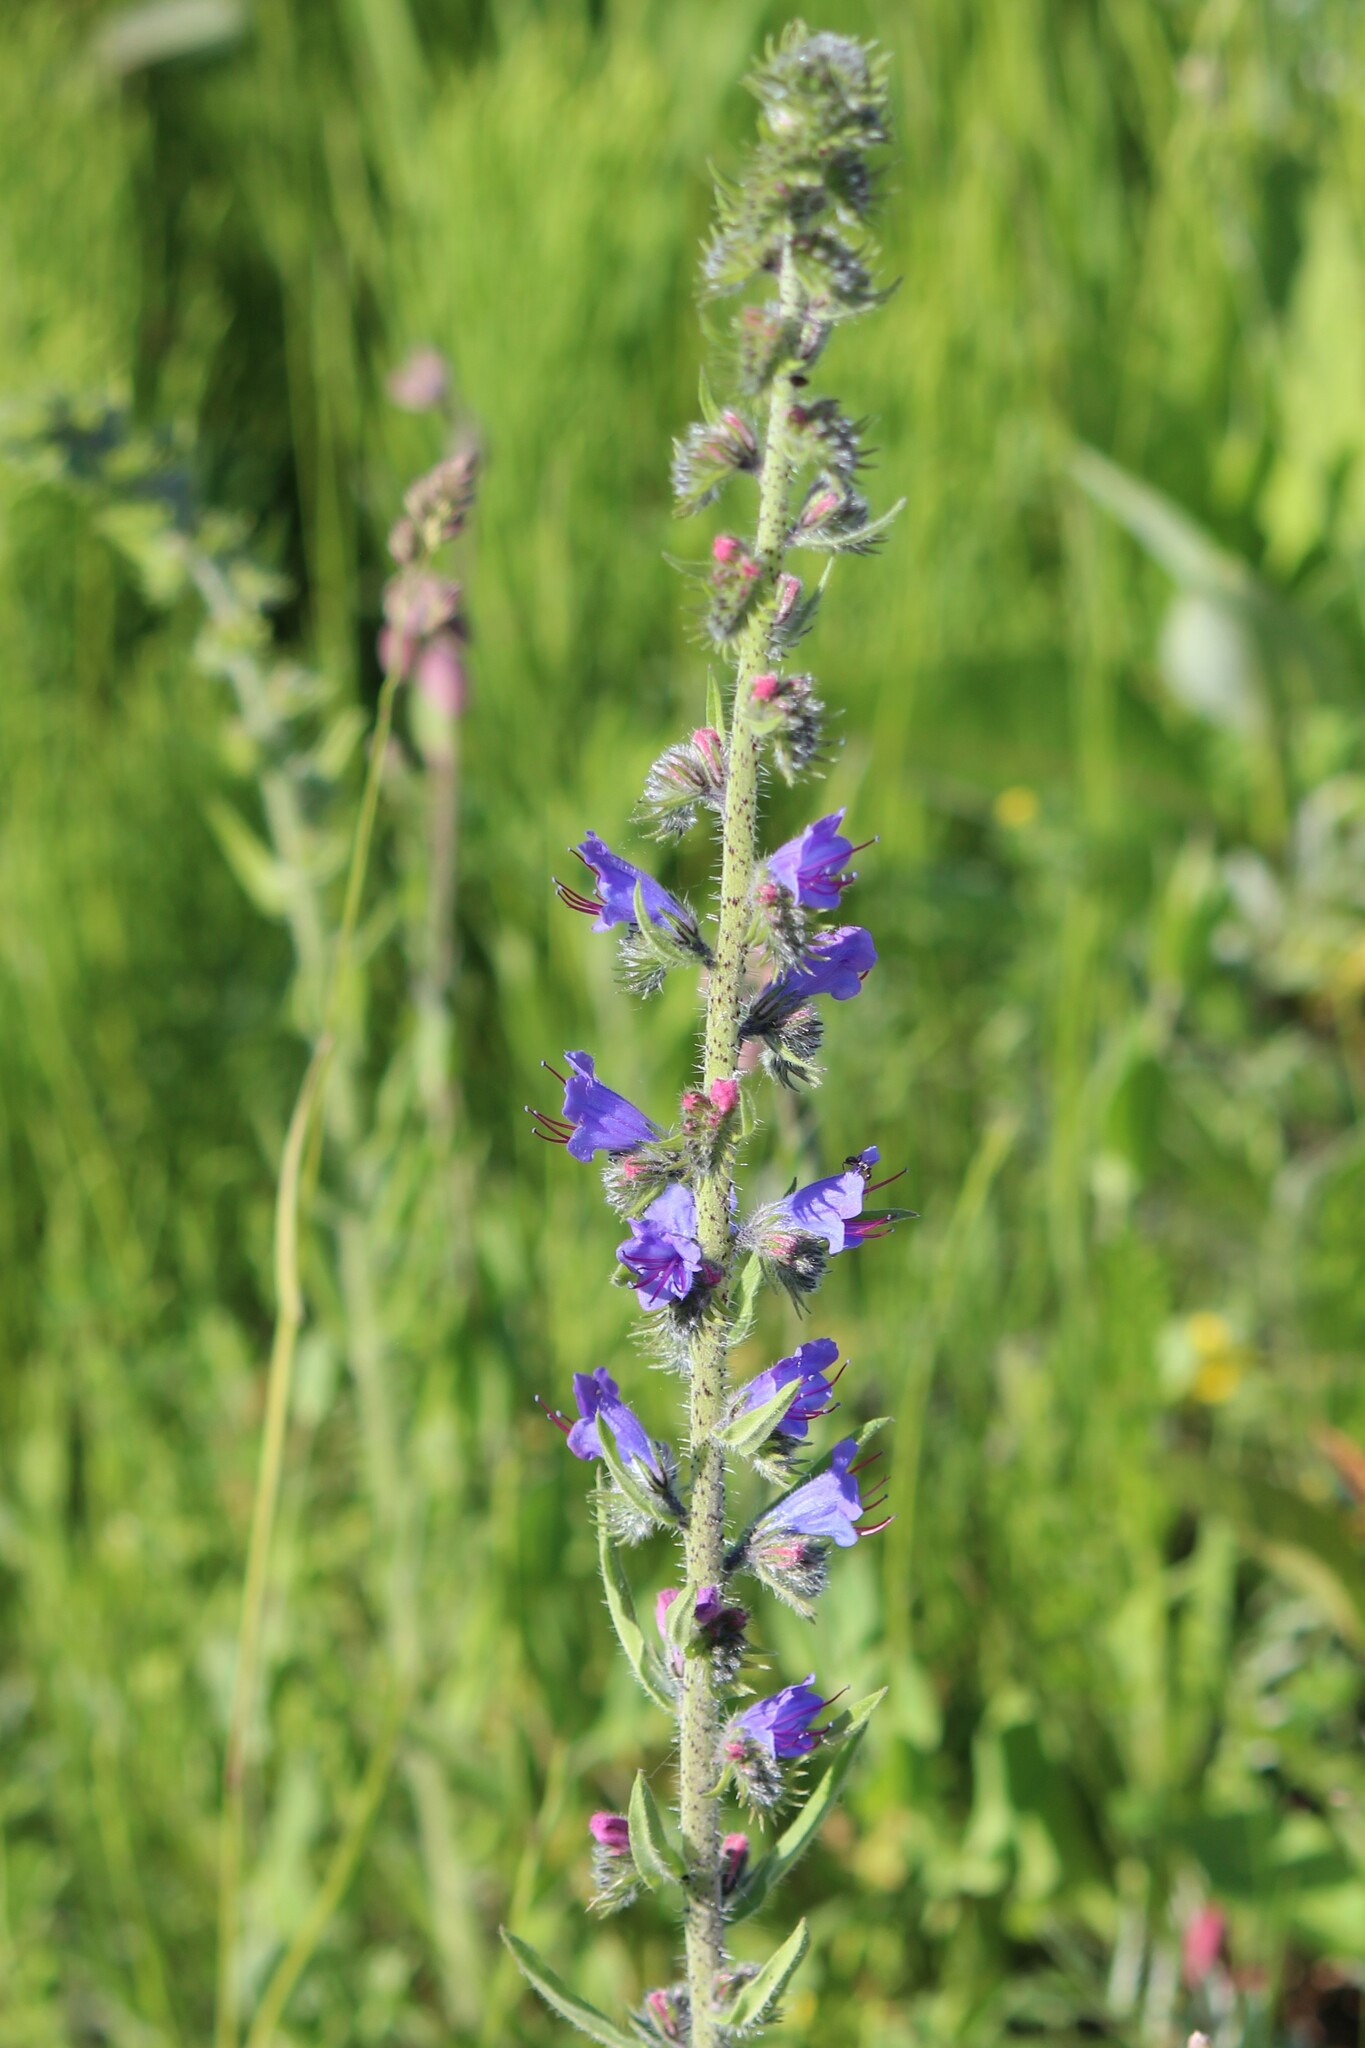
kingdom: Plantae
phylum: Tracheophyta
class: Magnoliopsida
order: Boraginales
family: Boraginaceae
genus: Echium
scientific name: Echium vulgare
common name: Common viper's bugloss
